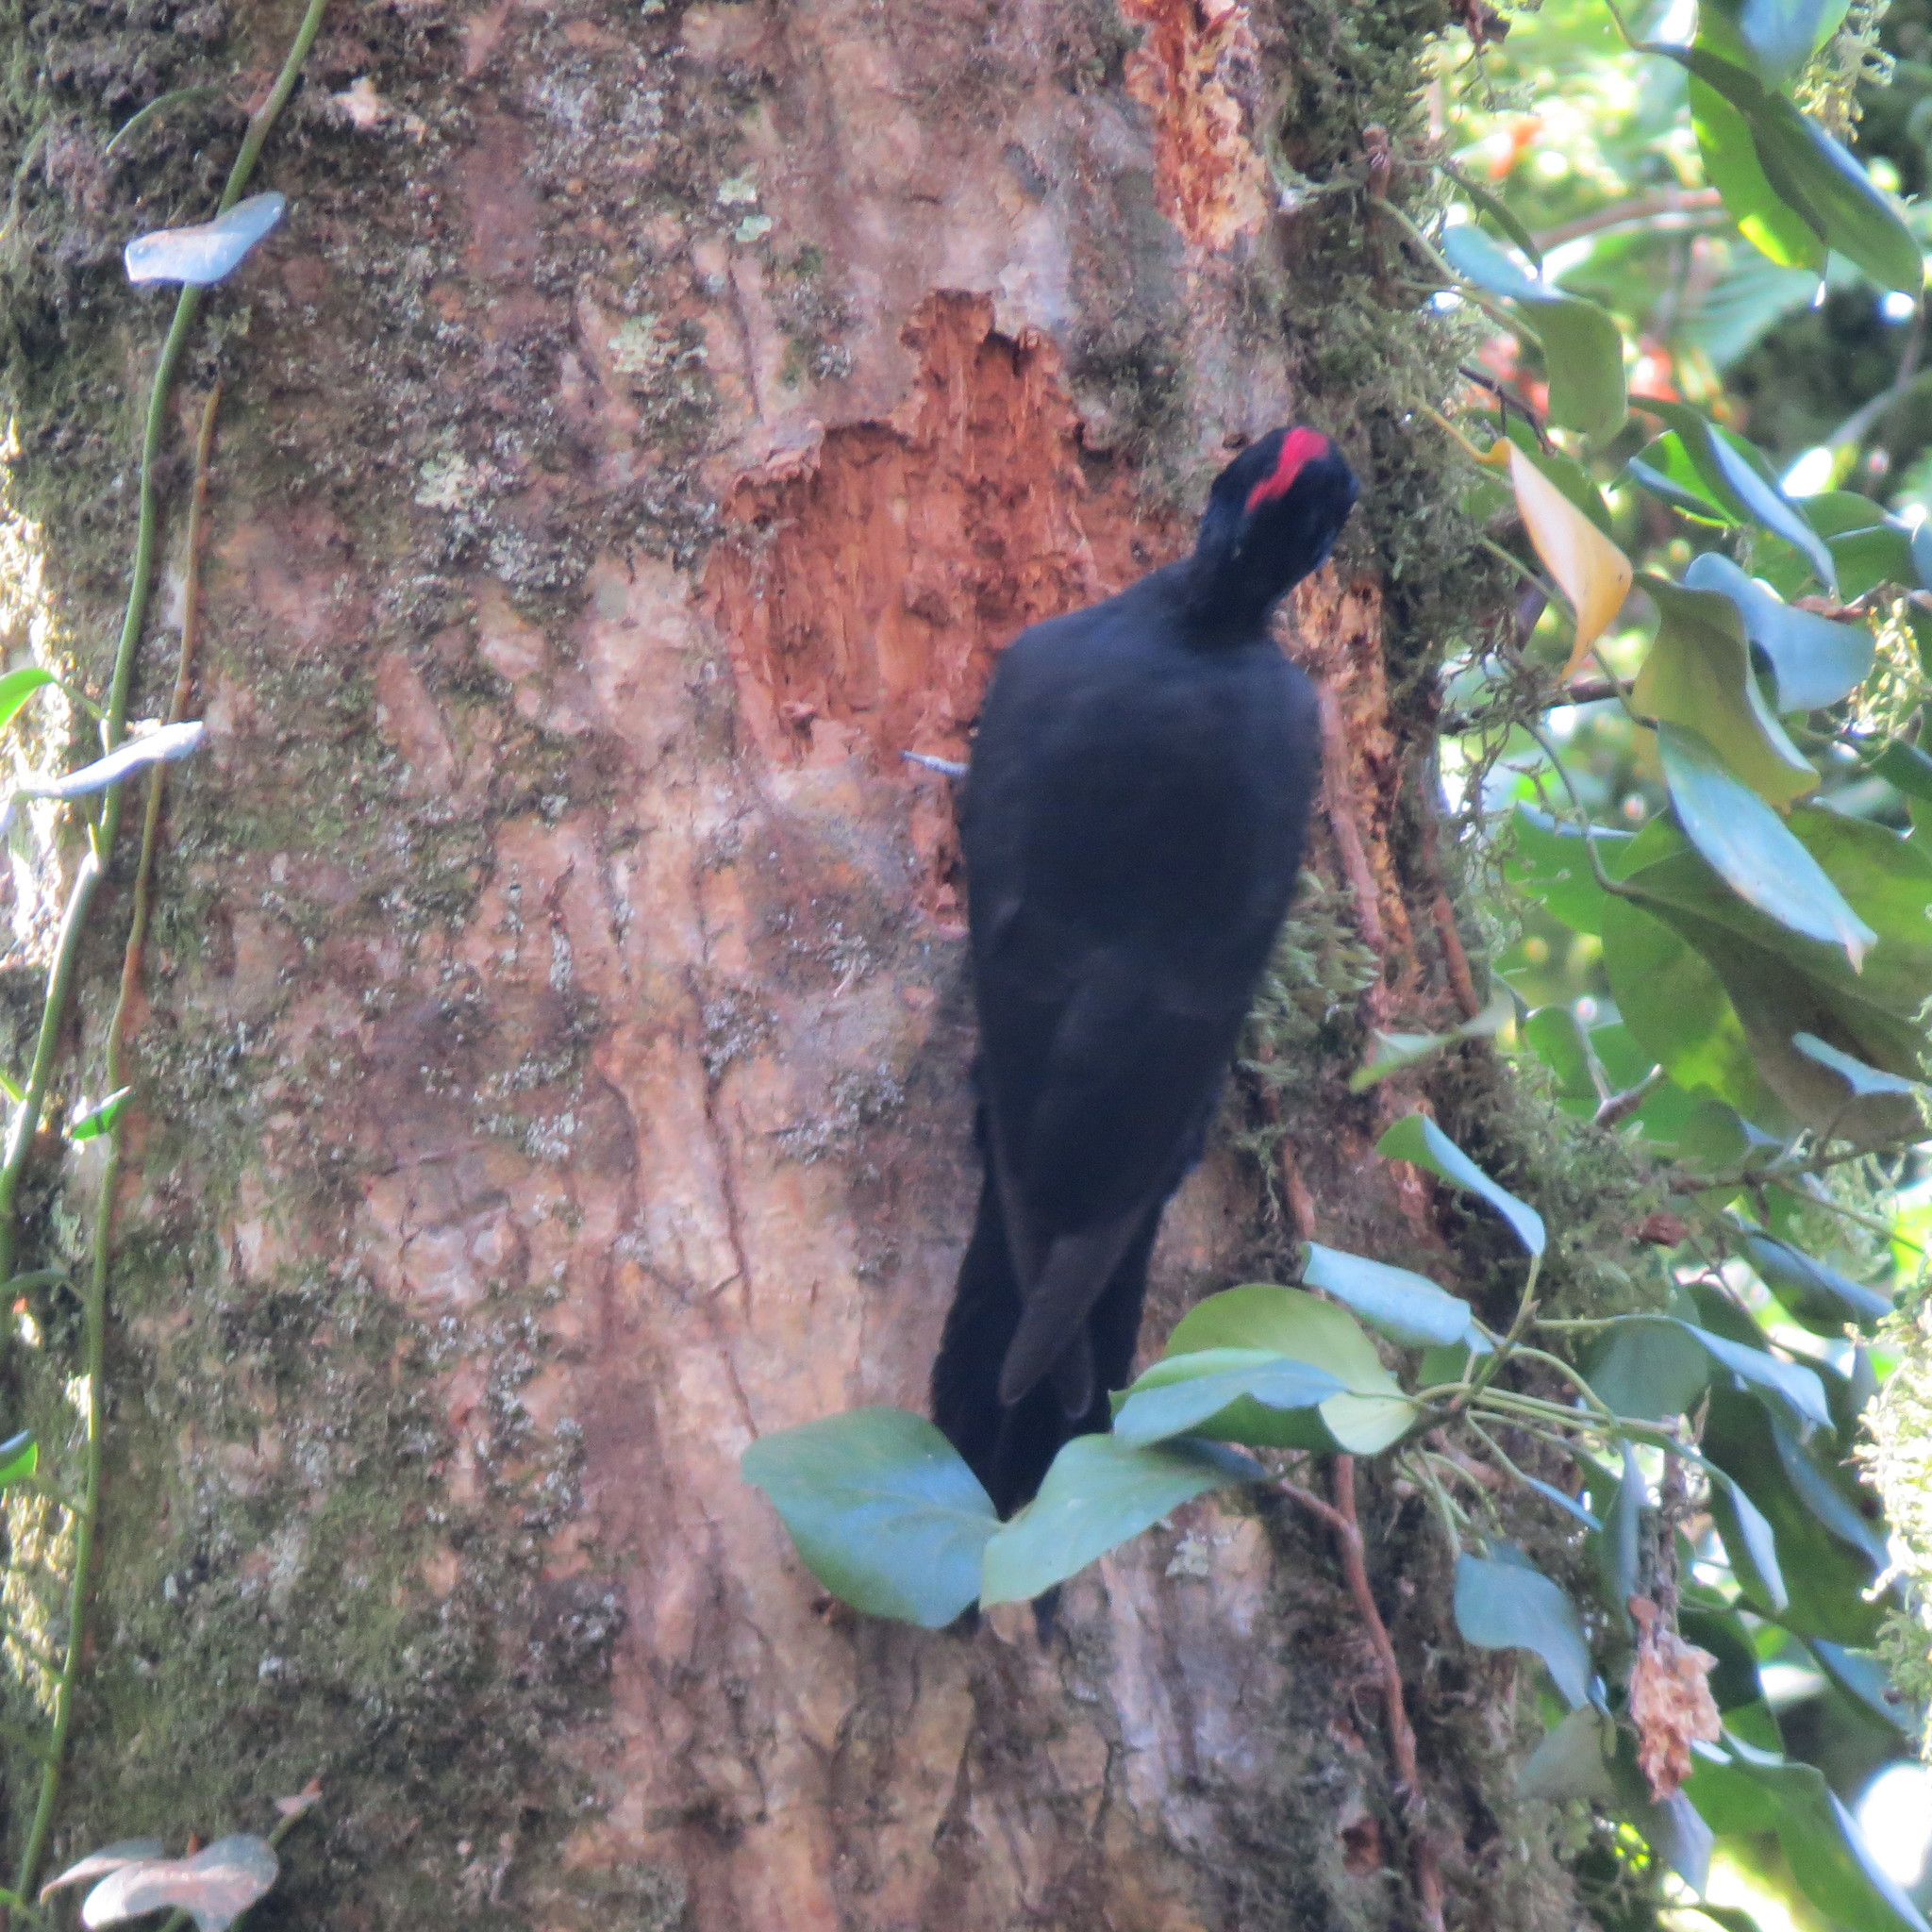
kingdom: Animalia
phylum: Chordata
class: Aves
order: Piciformes
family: Picidae
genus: Dryocopus
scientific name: Dryocopus martius
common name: Black woodpecker
